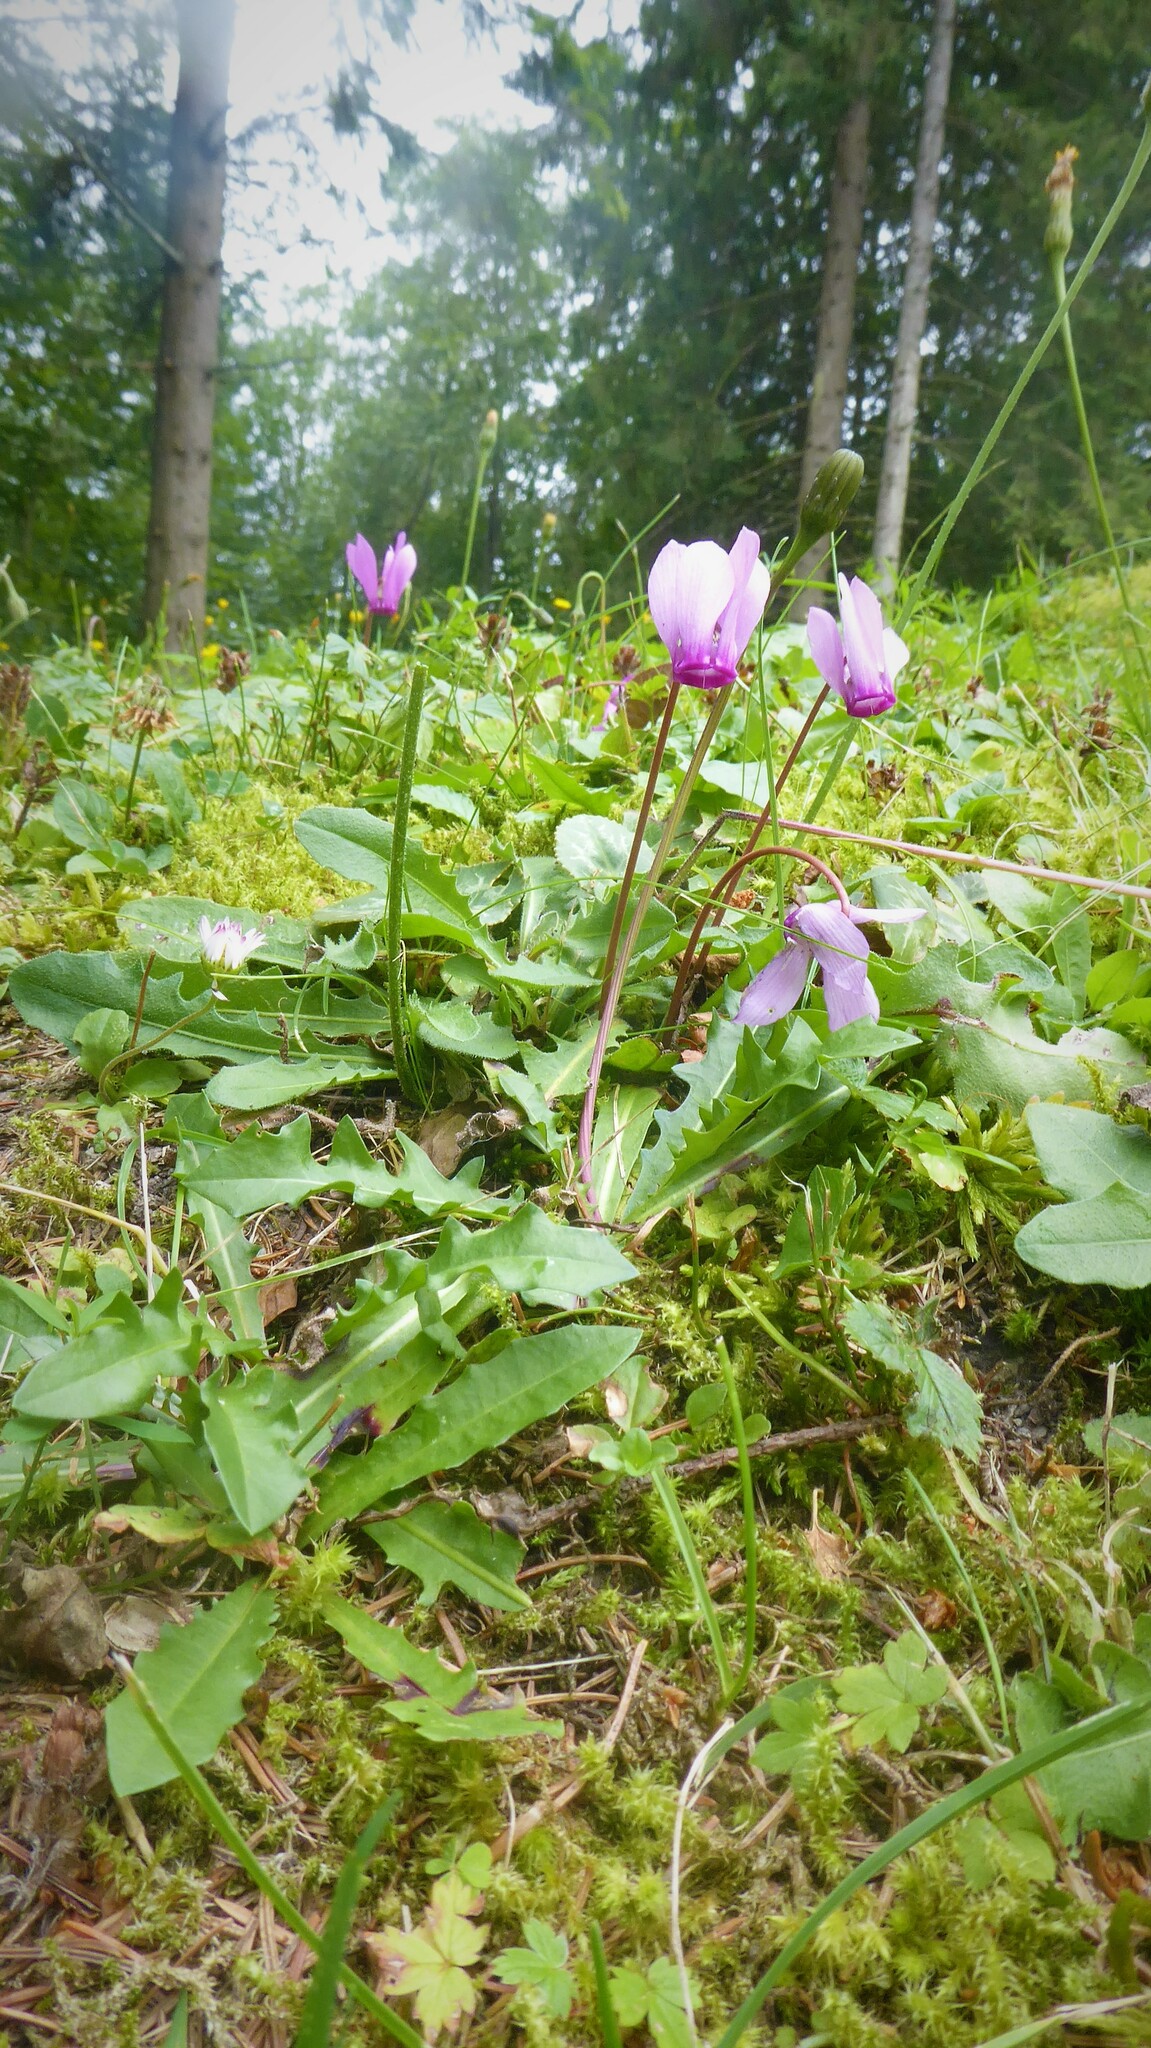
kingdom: Plantae
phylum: Tracheophyta
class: Magnoliopsida
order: Ericales
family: Primulaceae
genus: Cyclamen
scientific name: Cyclamen purpurascens
